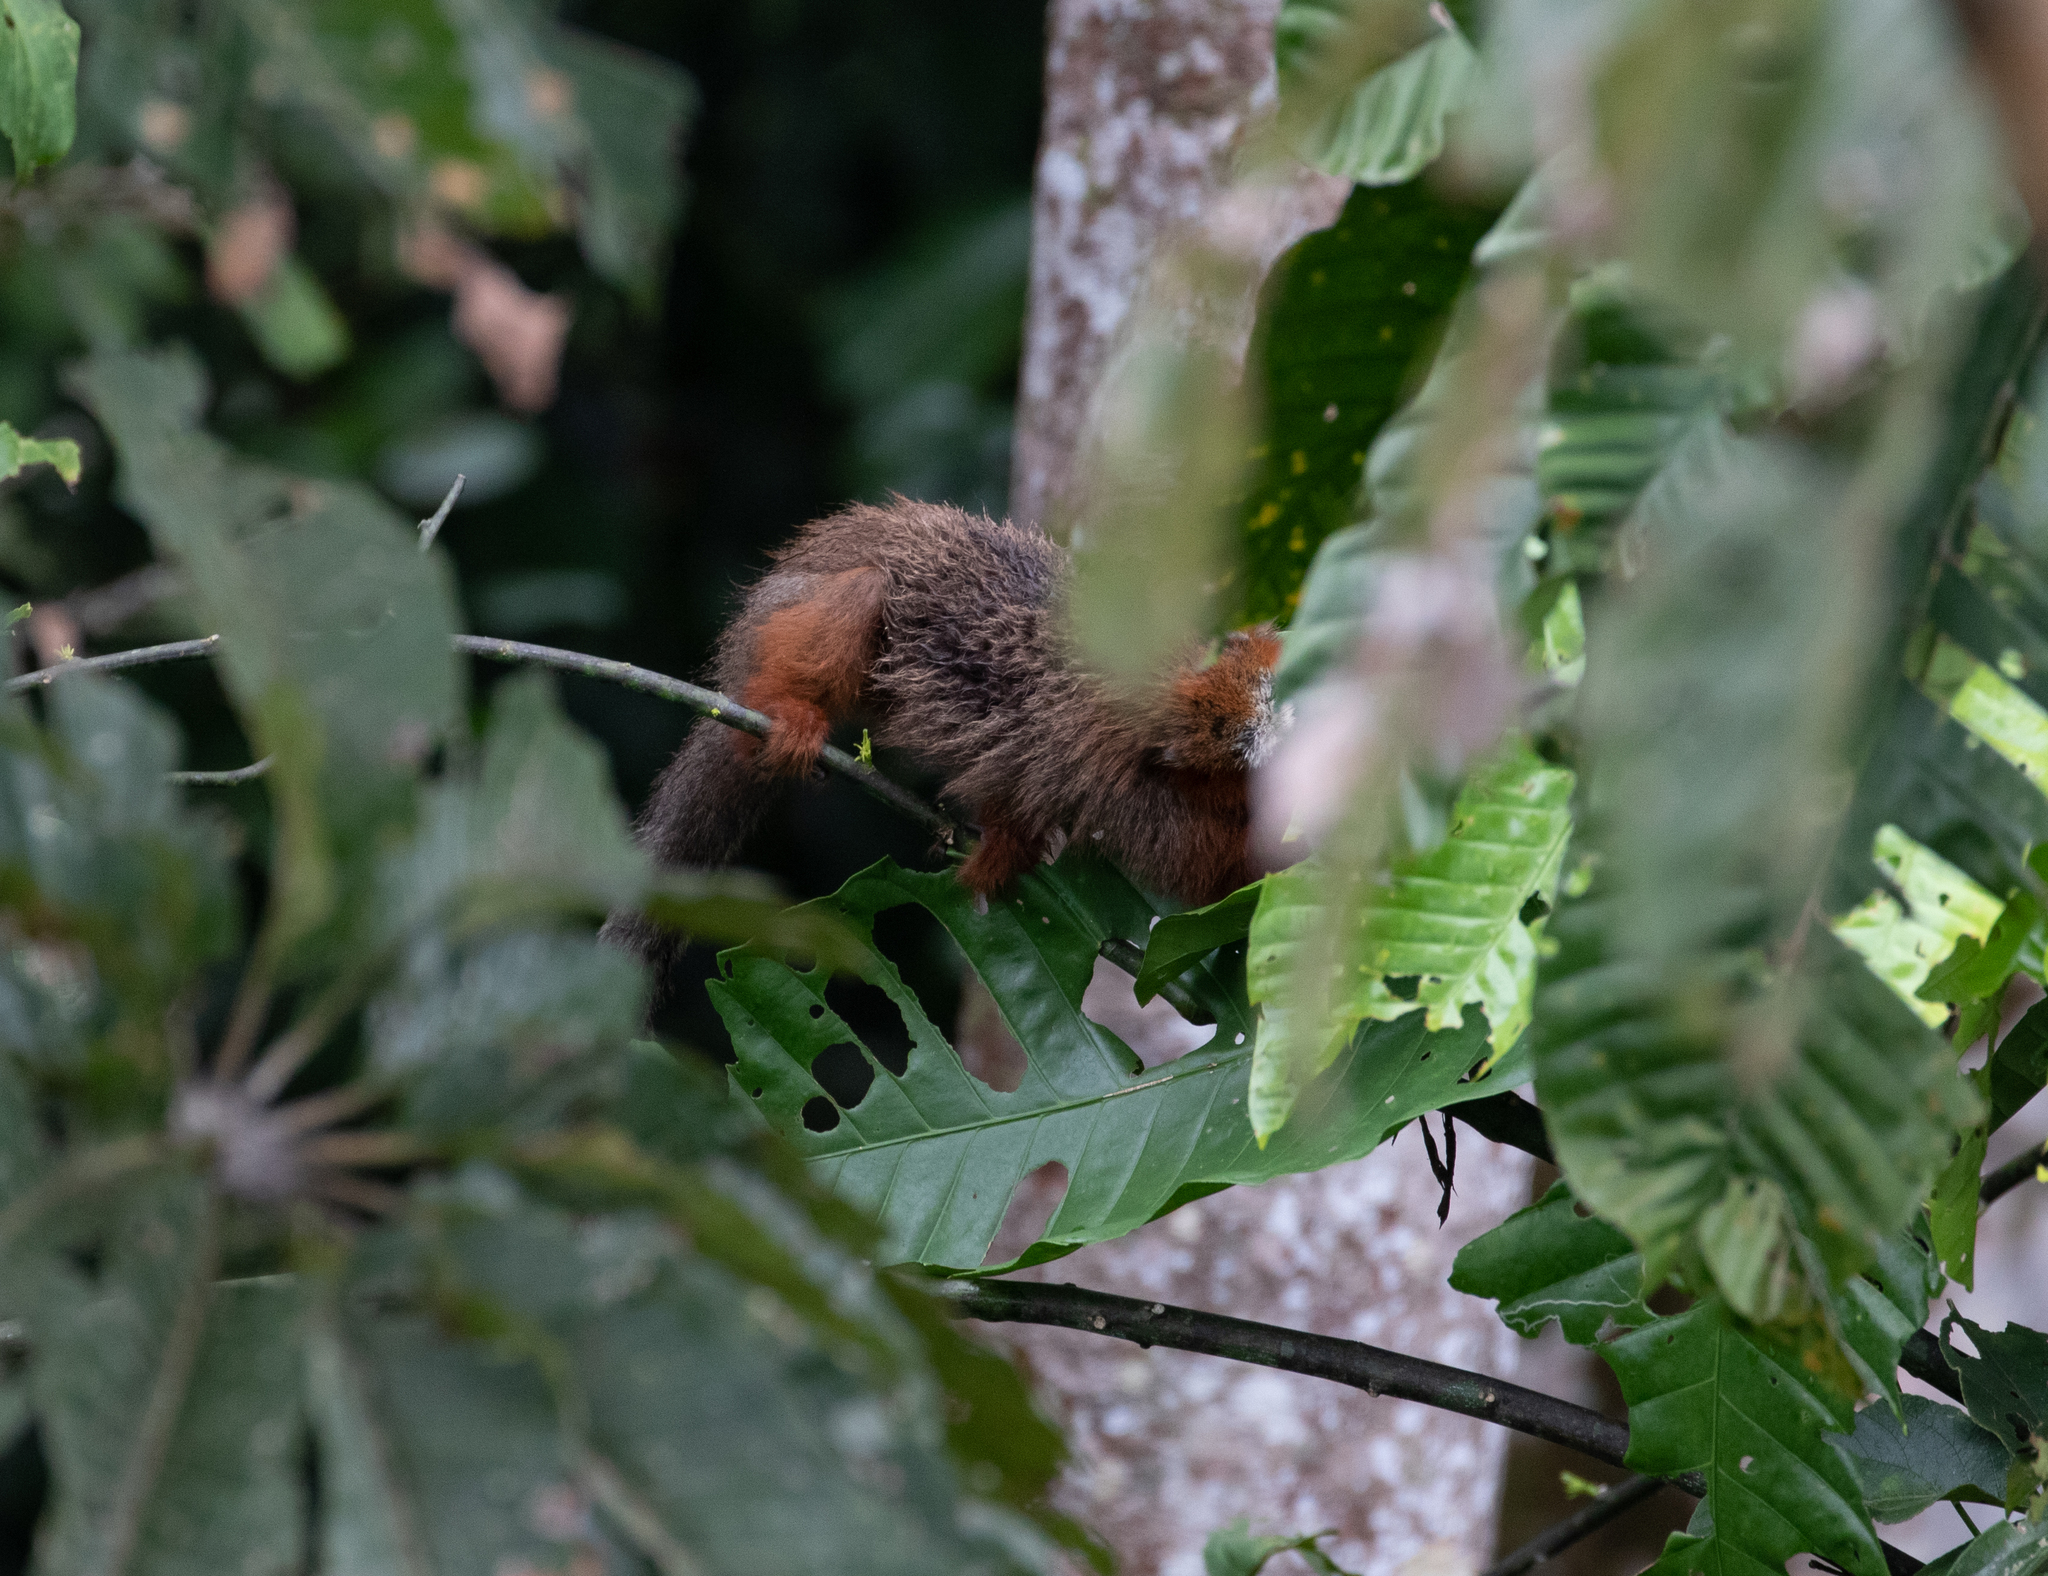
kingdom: Animalia
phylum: Chordata
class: Mammalia
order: Primates
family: Pitheciidae
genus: Plecturocebus
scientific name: Plecturocebus discolor
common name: Red-crowned titi
